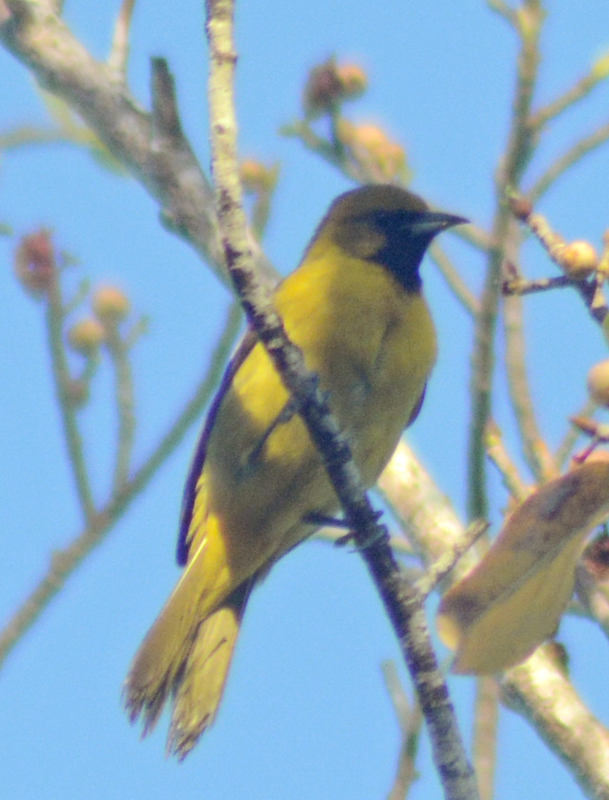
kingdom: Animalia
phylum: Chordata
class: Aves
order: Passeriformes
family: Icteridae
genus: Icterus
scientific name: Icterus spurius
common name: Orchard oriole
